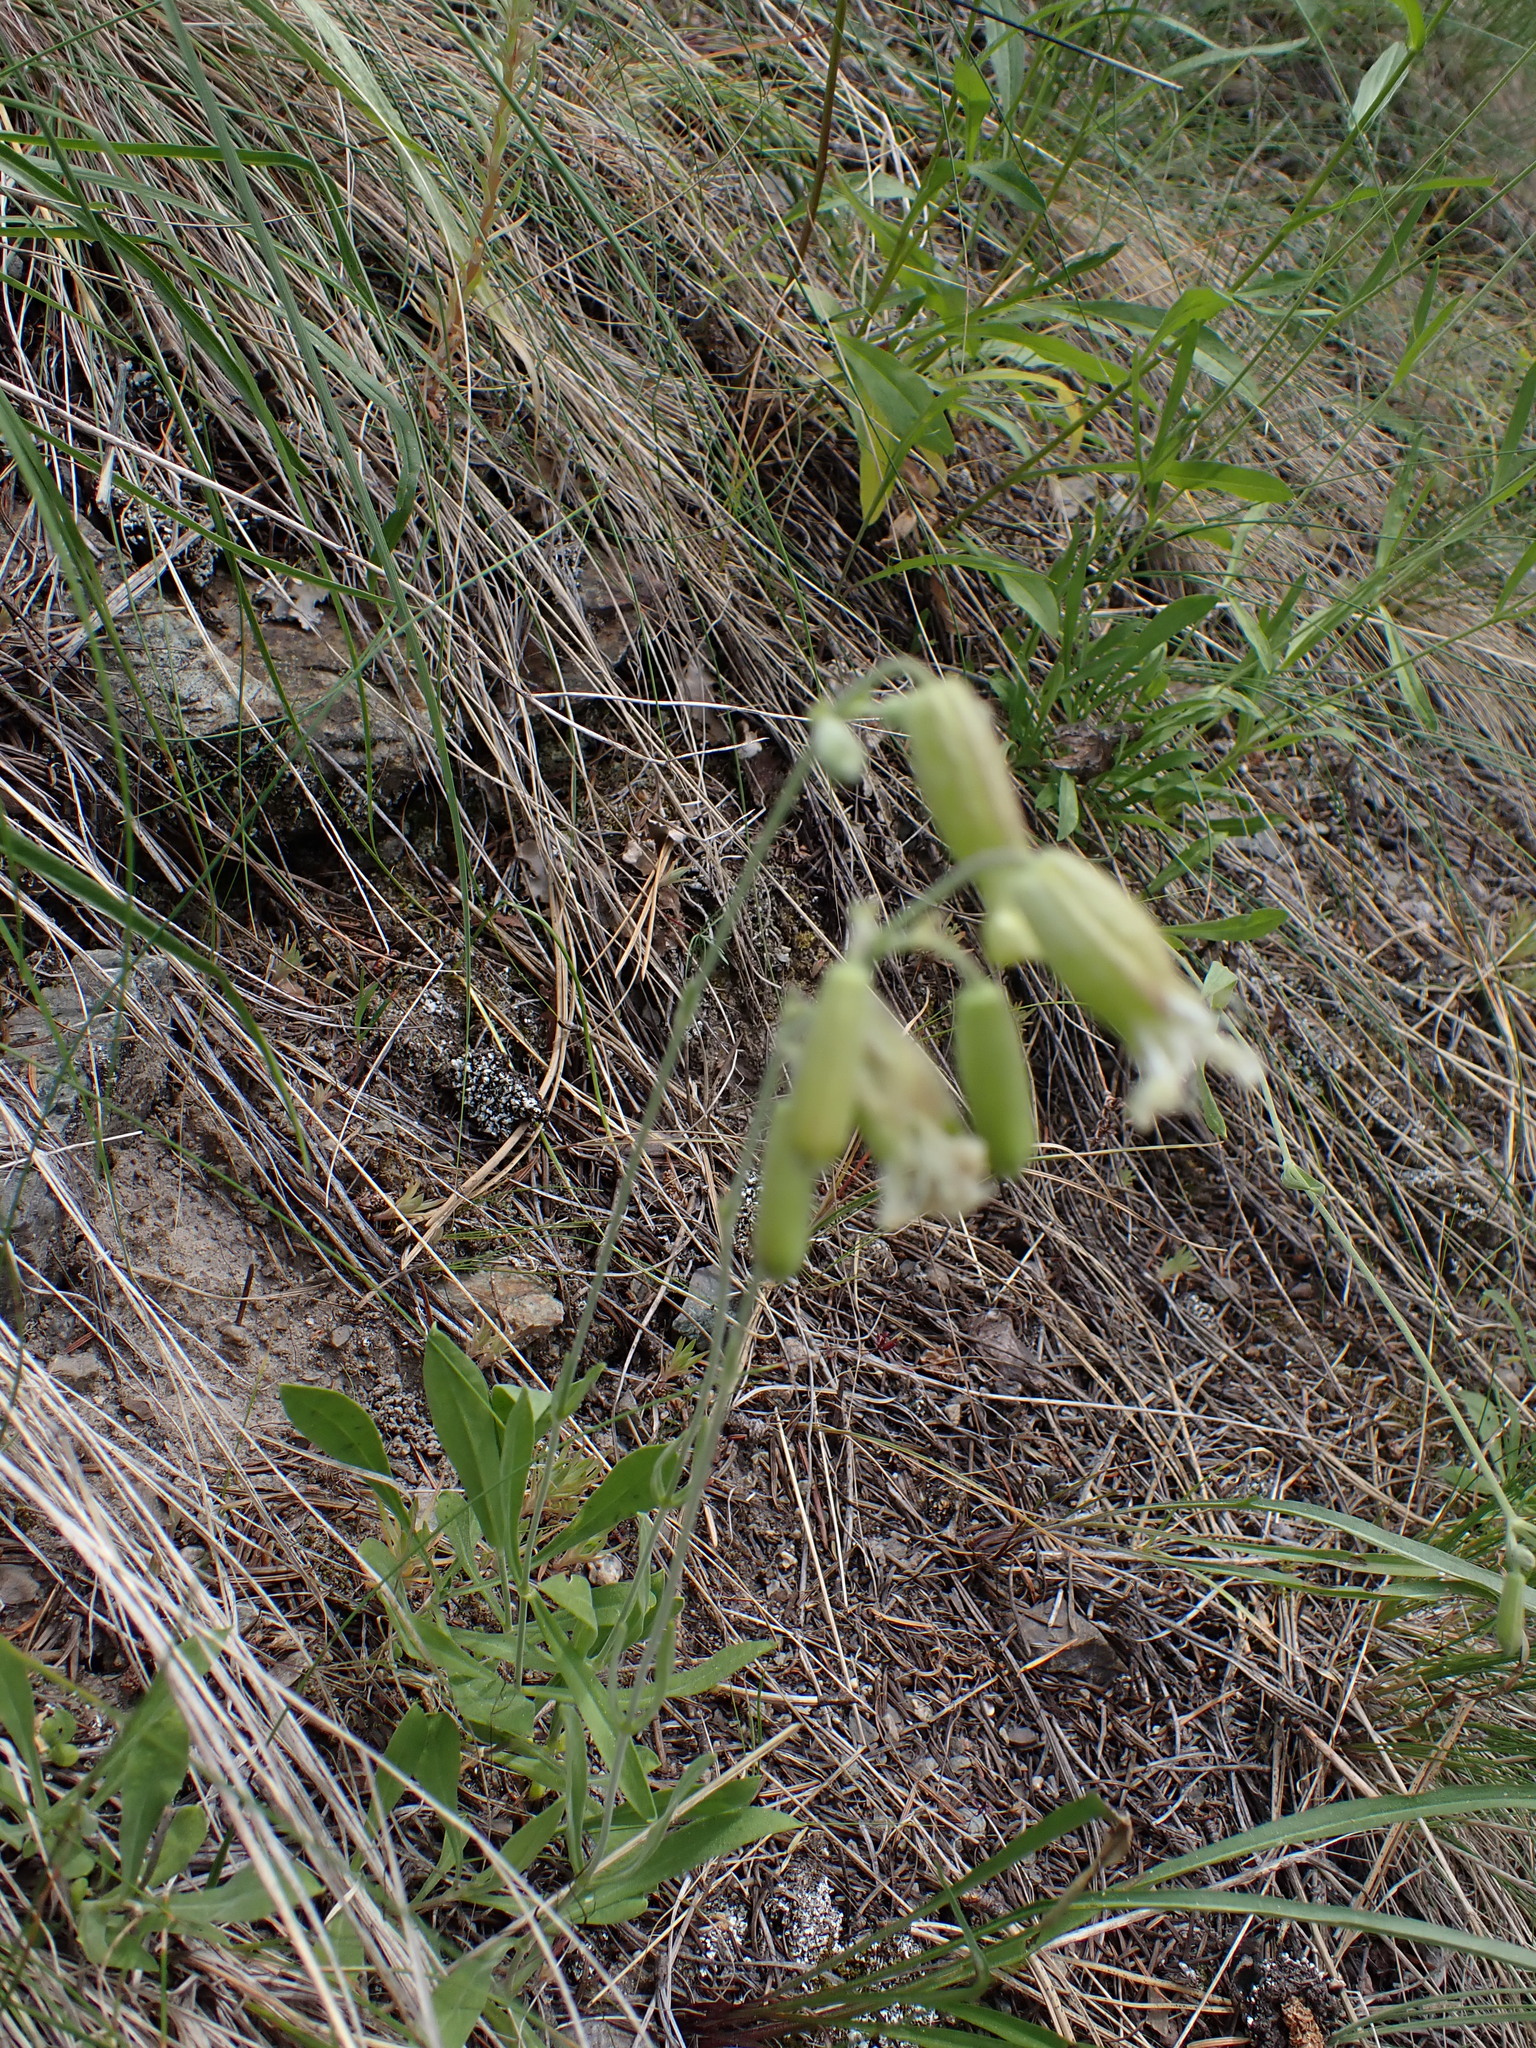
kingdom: Plantae
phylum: Tracheophyta
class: Magnoliopsida
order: Caryophyllales
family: Caryophyllaceae
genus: Silene
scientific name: Silene douglasii
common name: Douglas's catchfly
